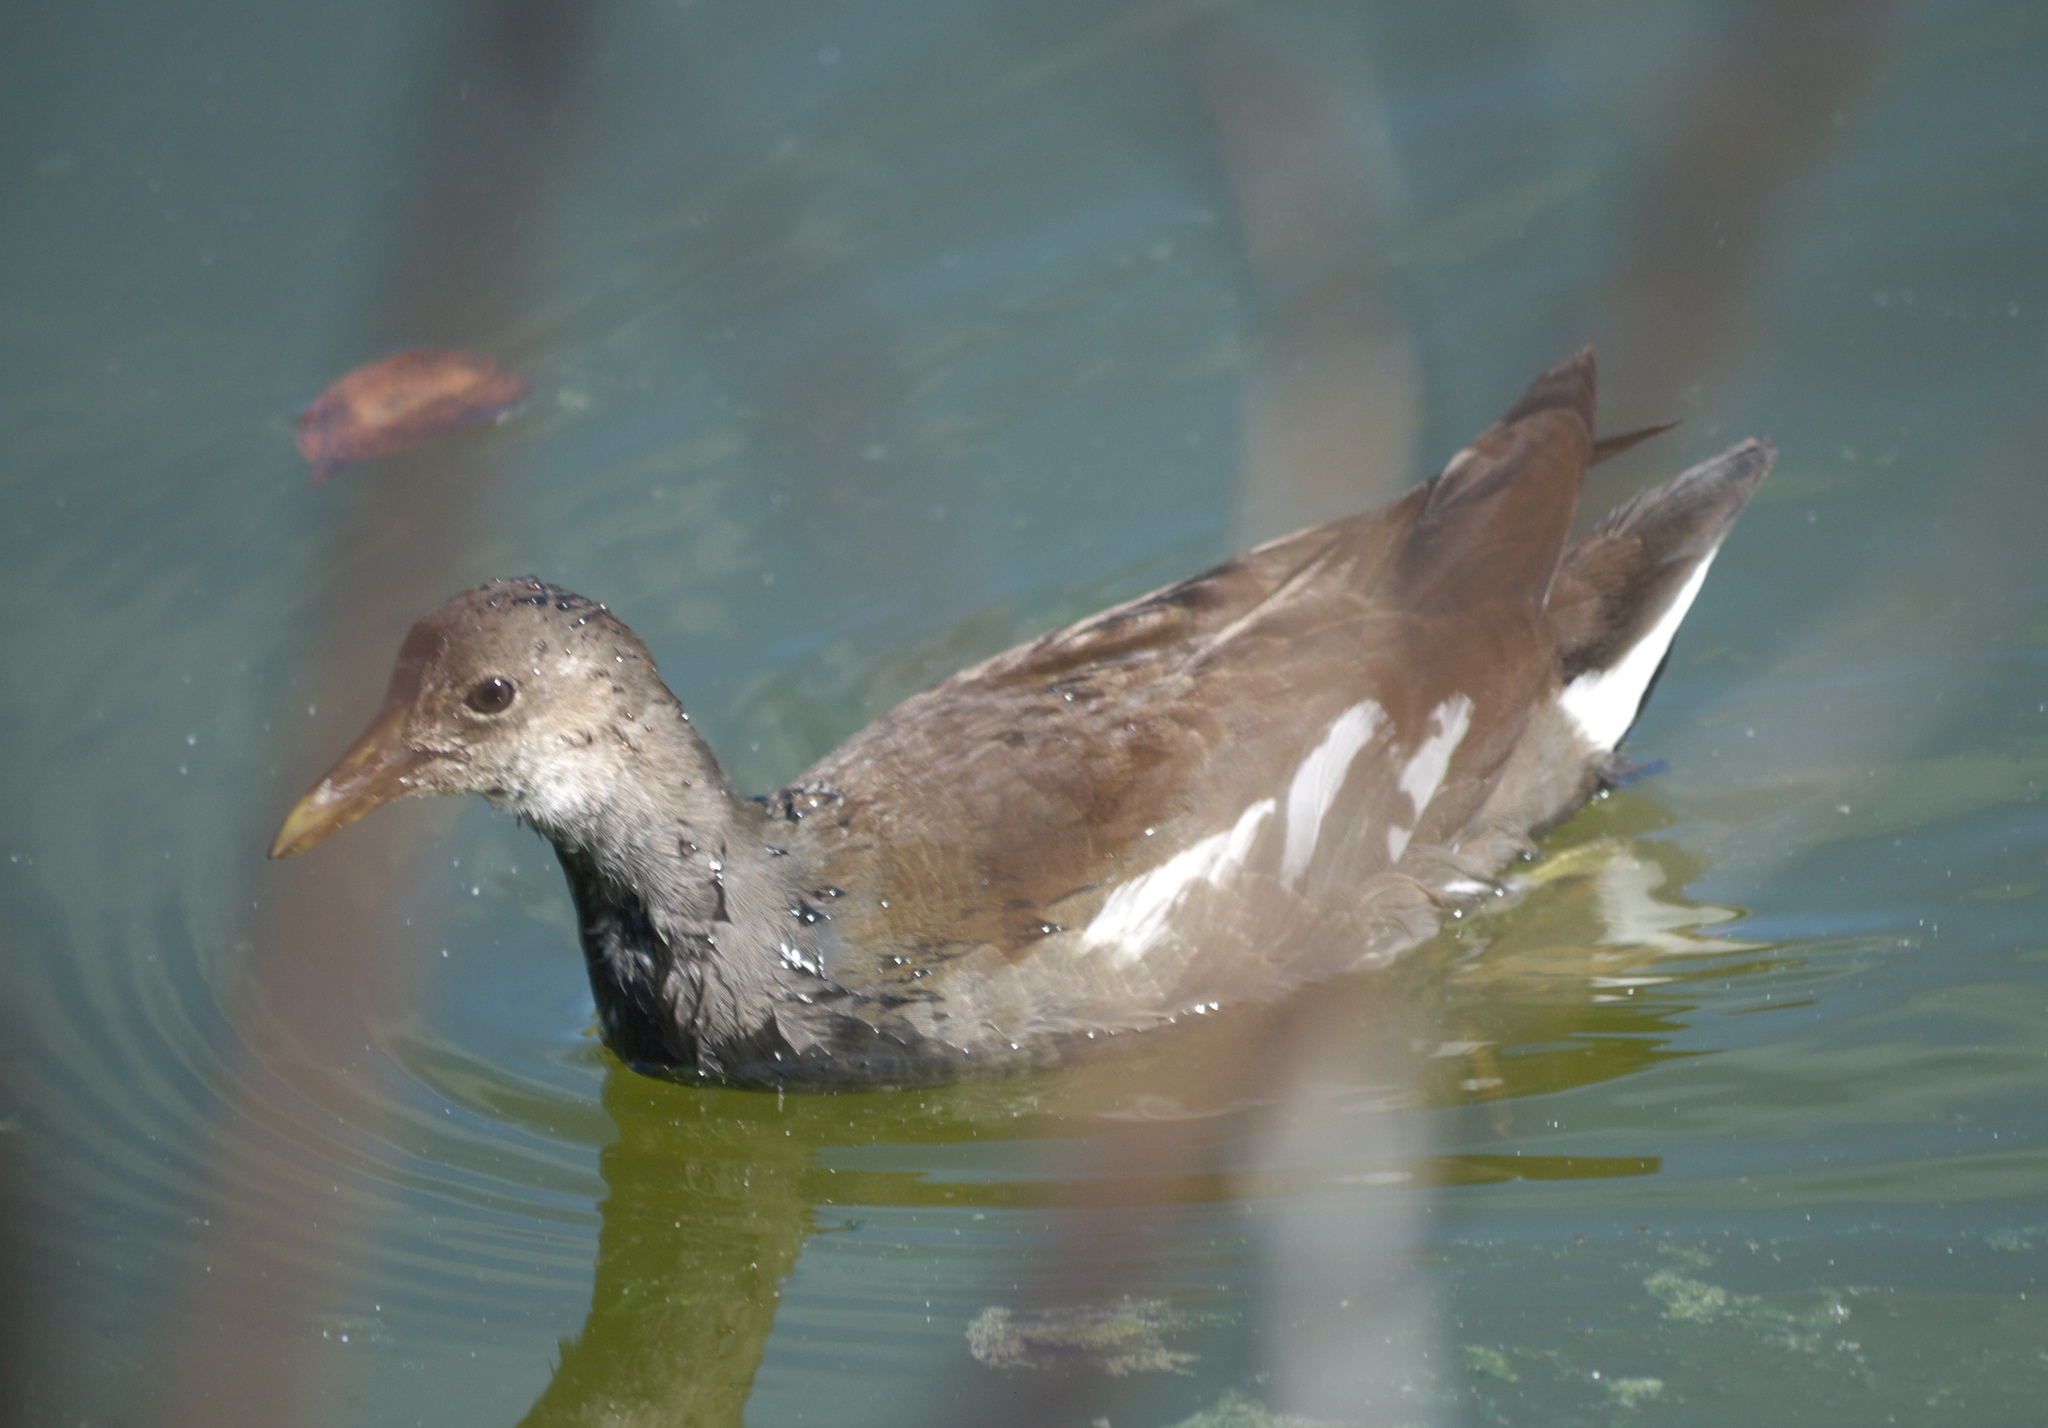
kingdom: Animalia
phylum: Chordata
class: Aves
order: Gruiformes
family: Rallidae
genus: Gallinula
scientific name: Gallinula chloropus
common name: Common moorhen
